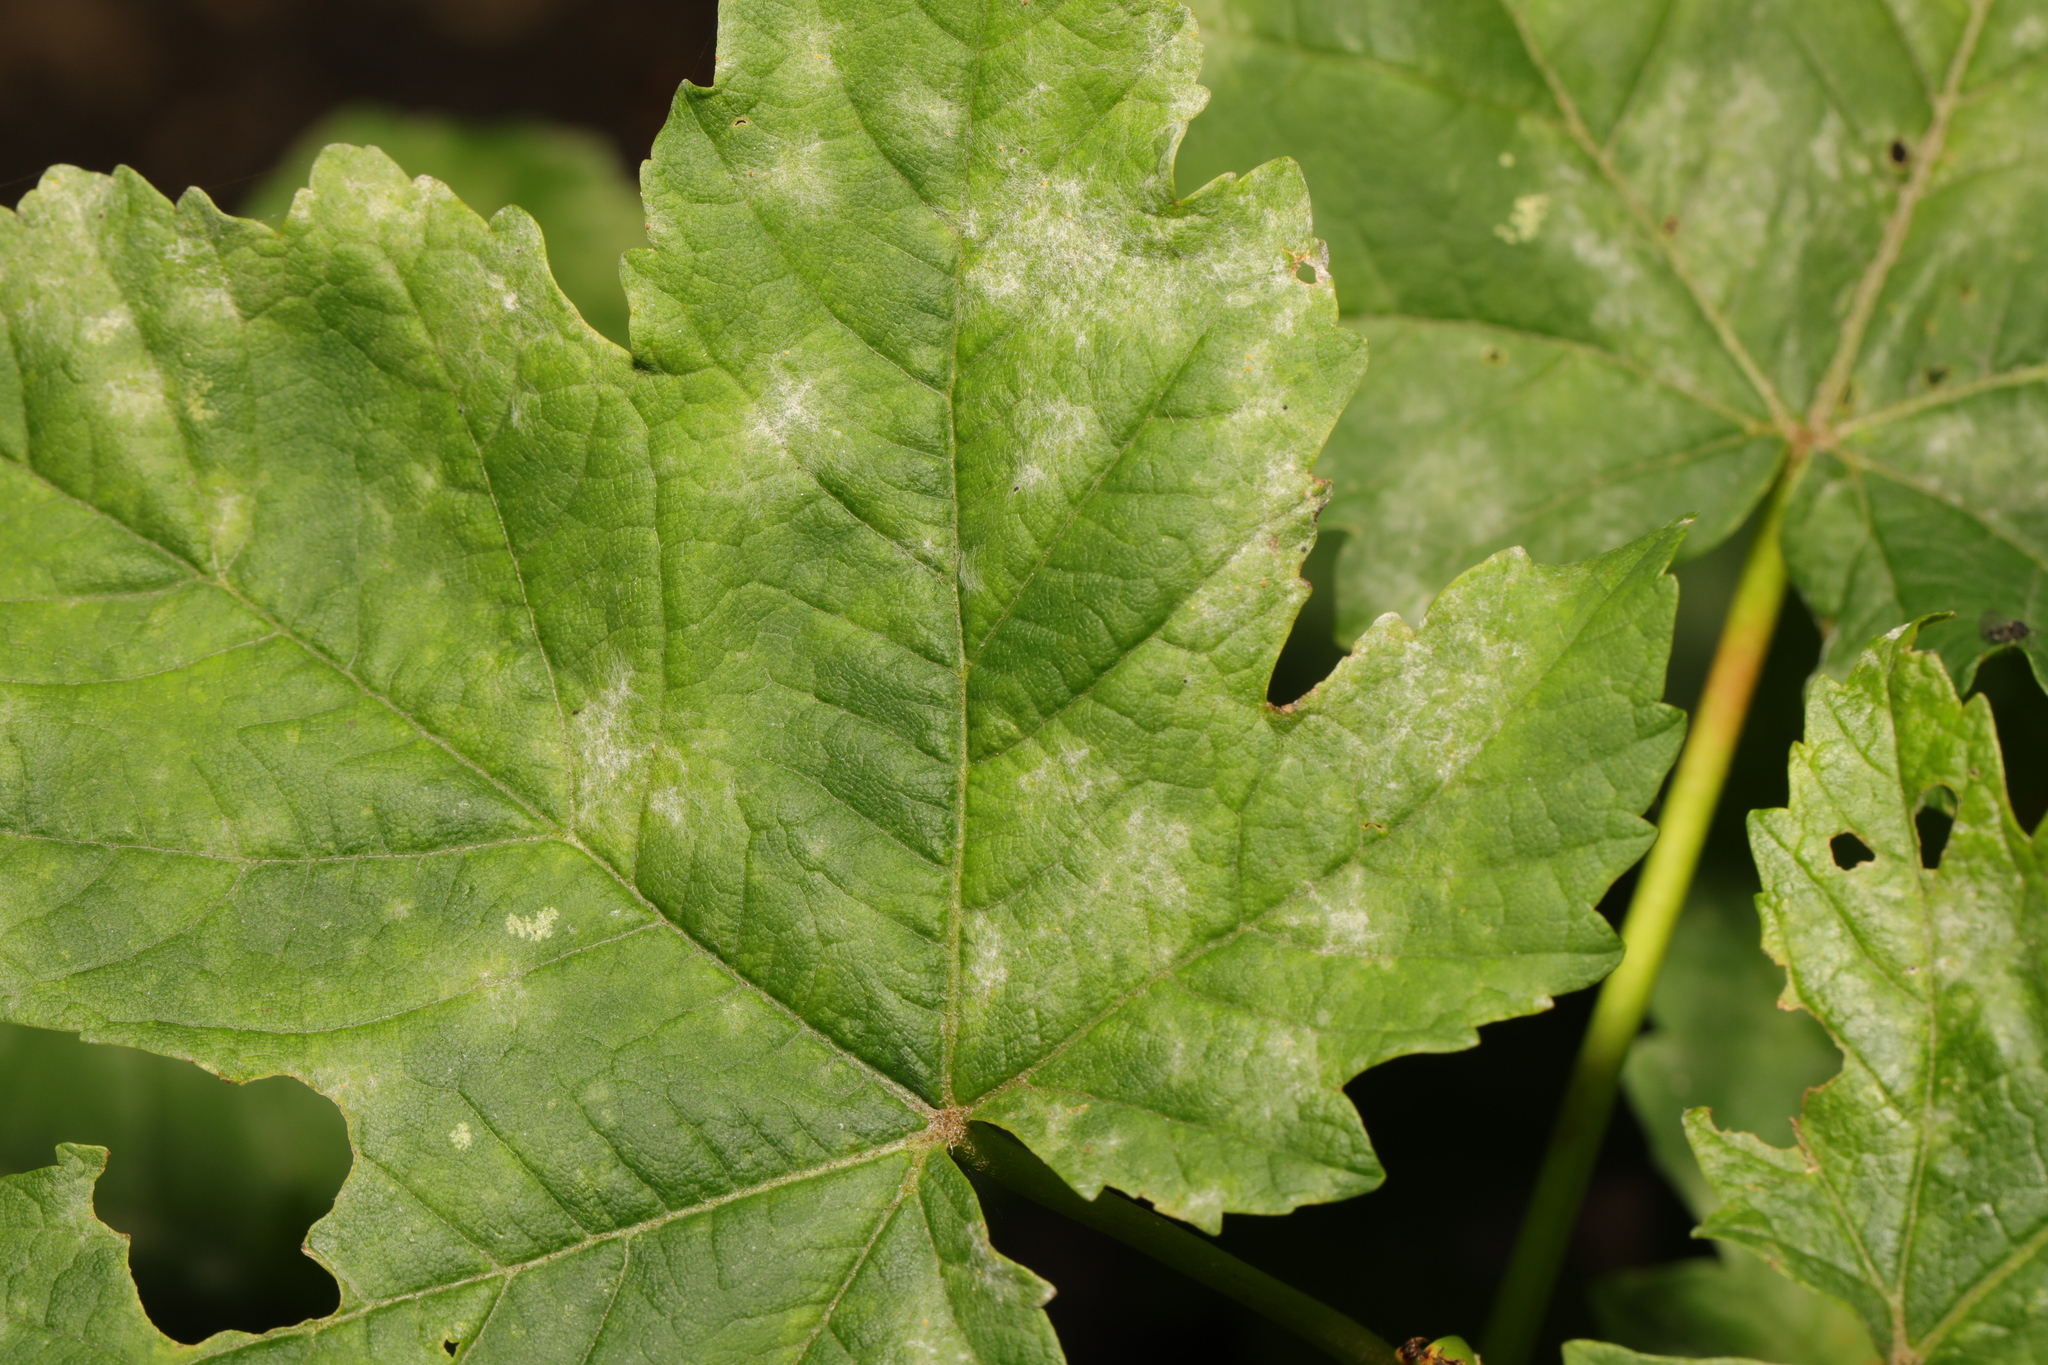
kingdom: Fungi
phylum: Ascomycota
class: Leotiomycetes
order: Helotiales
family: Erysiphaceae
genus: Sawadaea
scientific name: Sawadaea bicornis
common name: Maple mildew
